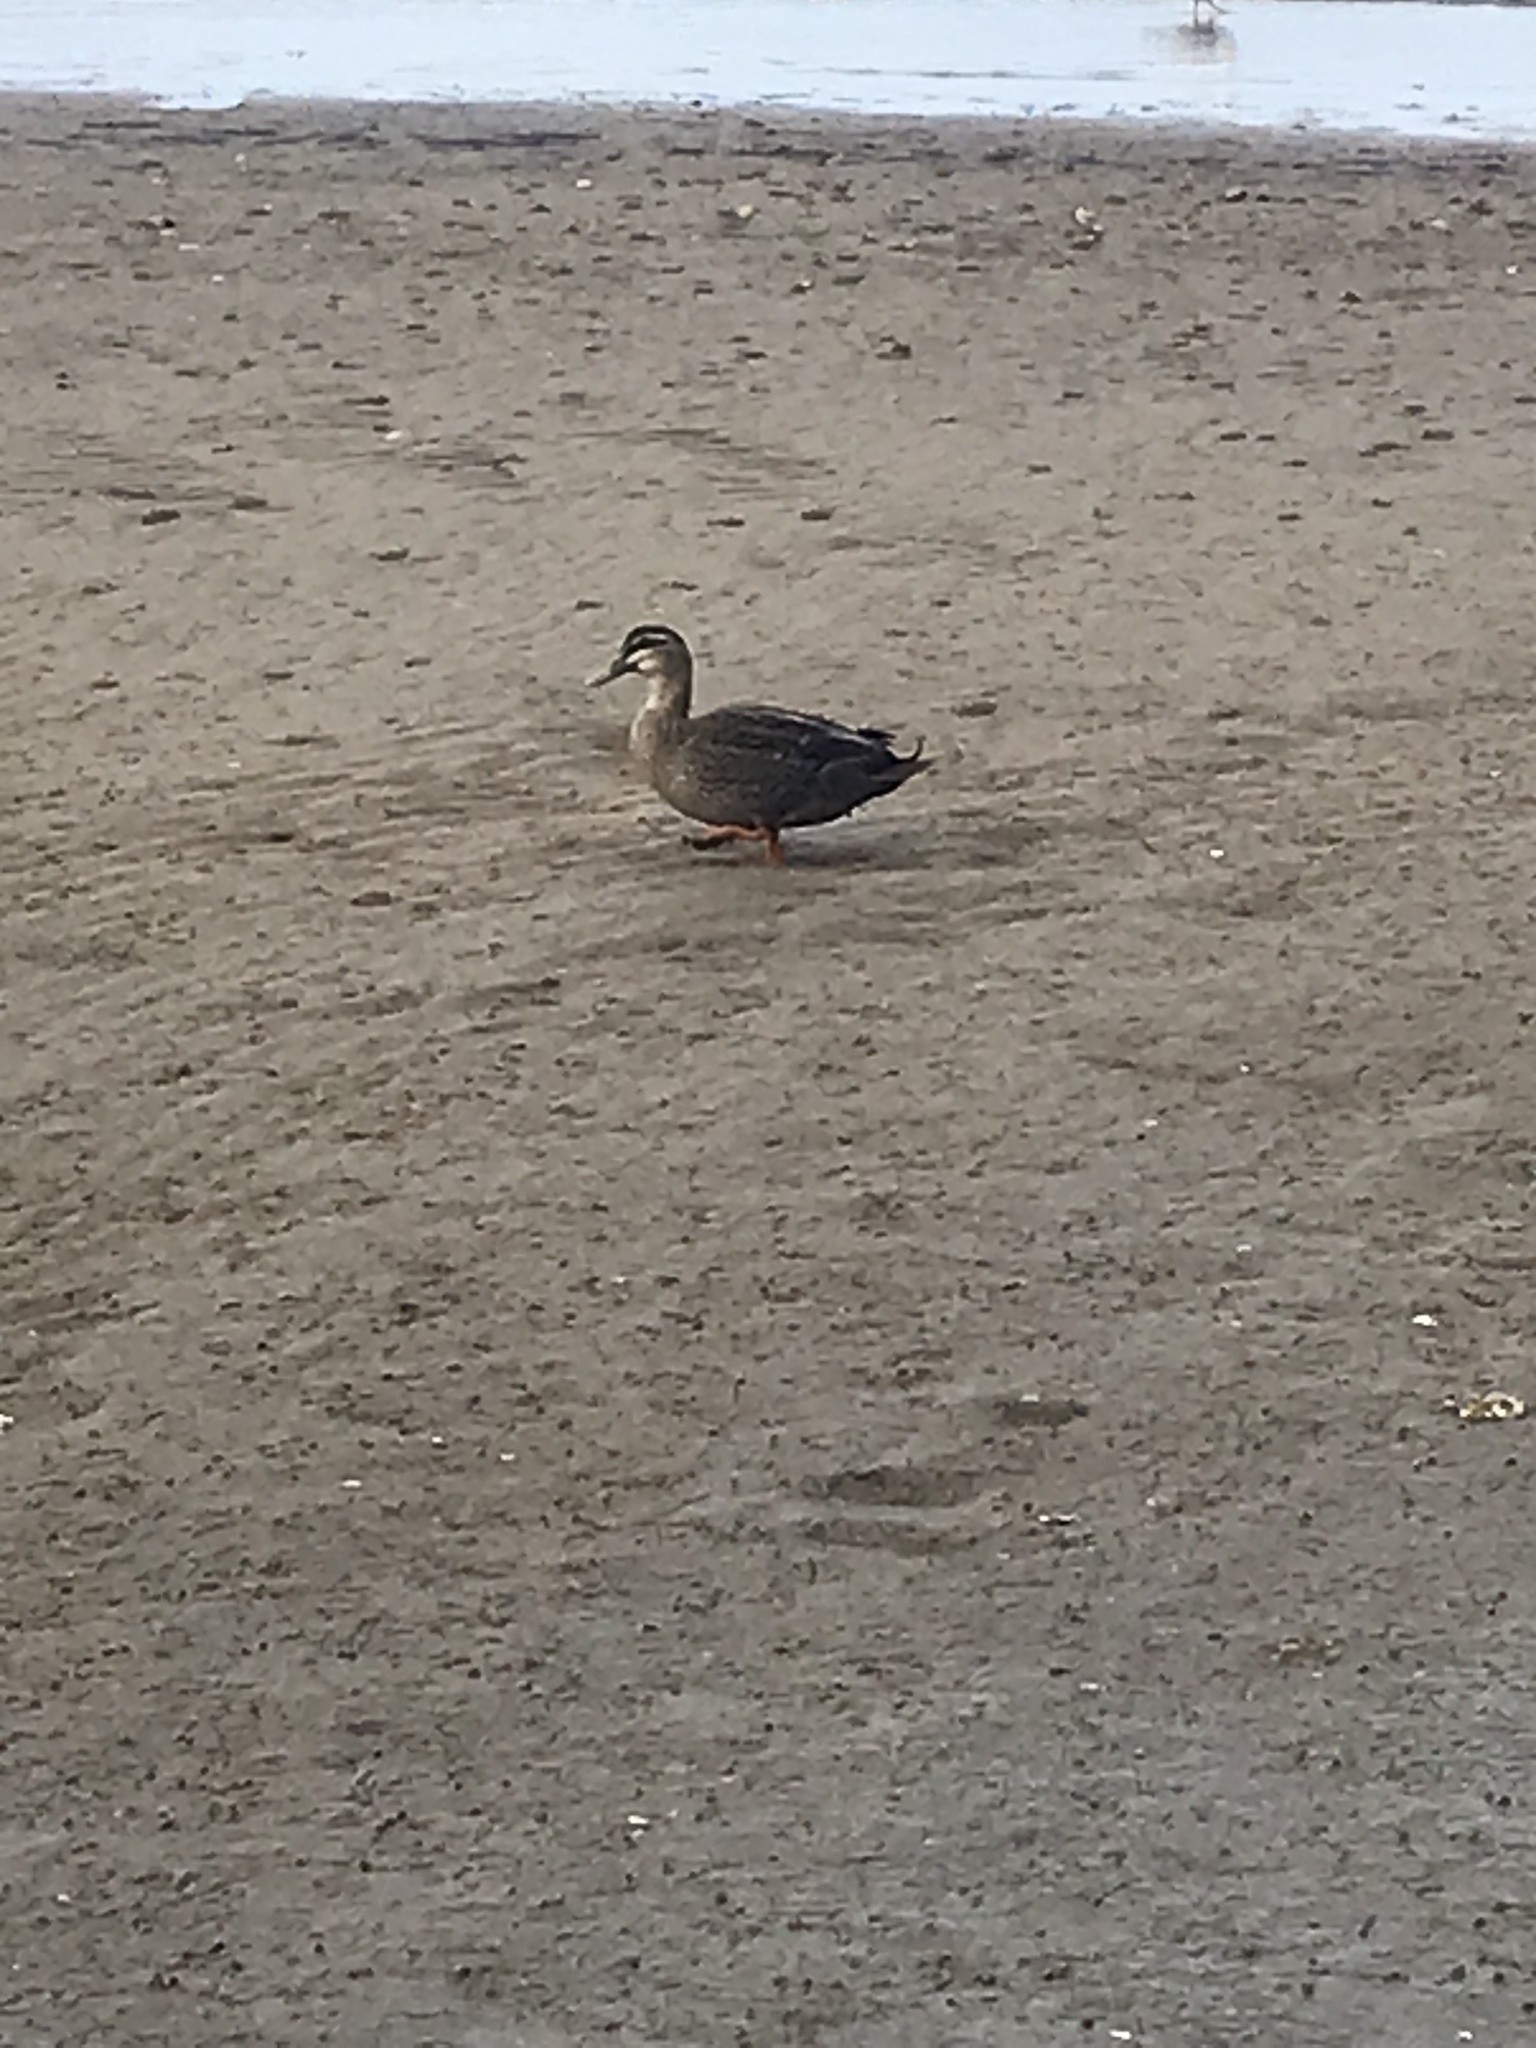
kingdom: Animalia
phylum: Chordata
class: Aves
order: Anseriformes
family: Anatidae
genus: Anas
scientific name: Anas
